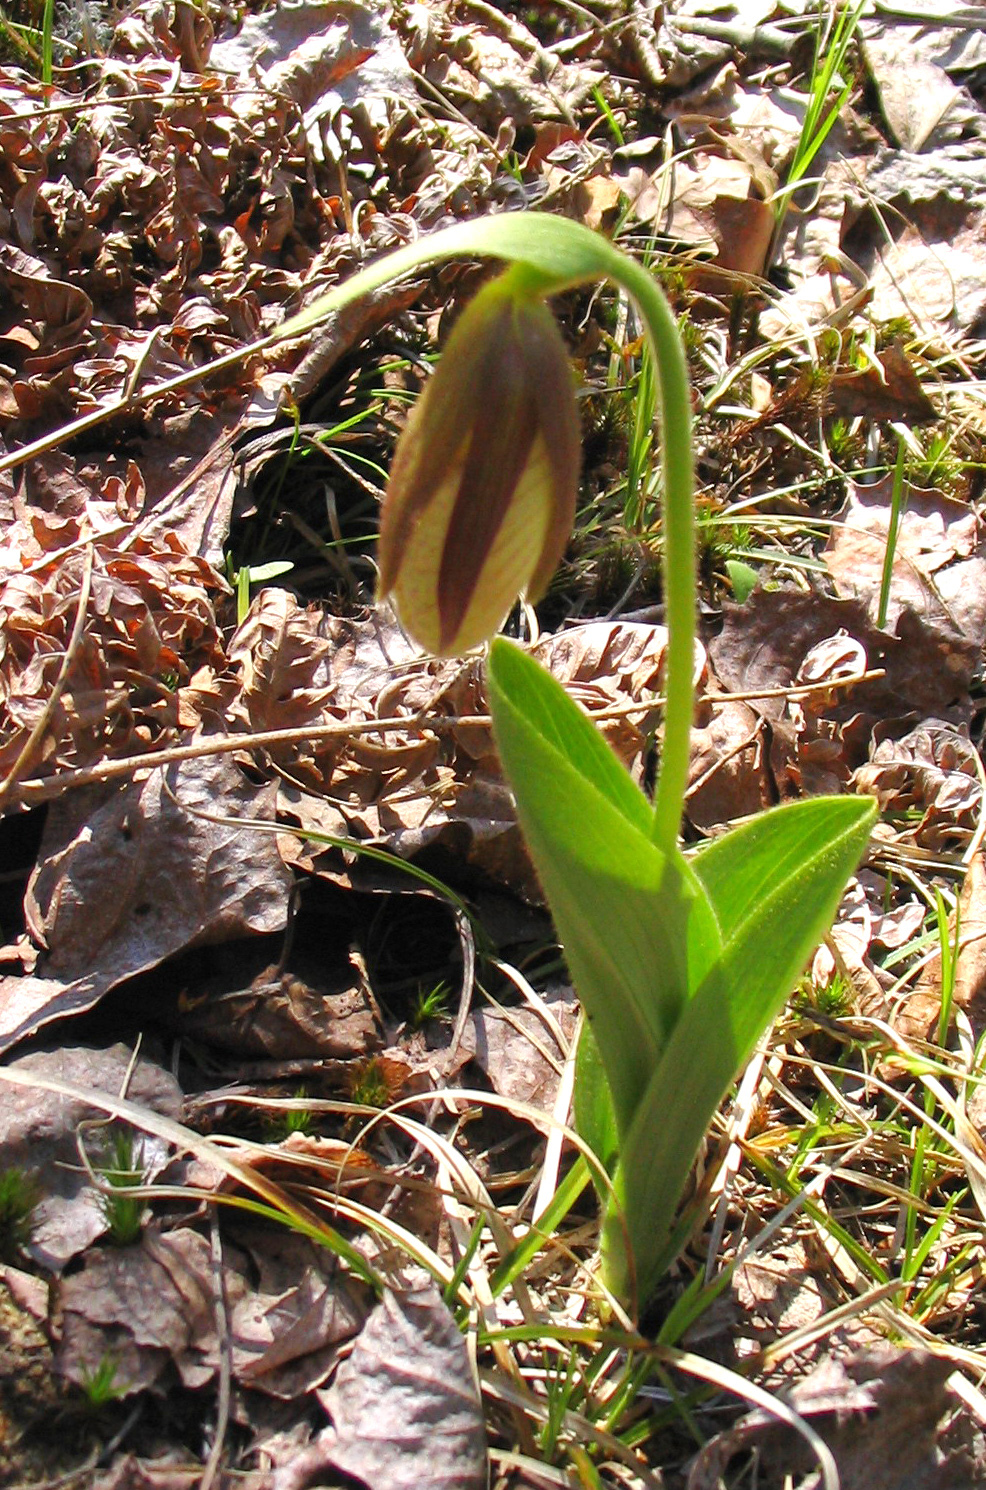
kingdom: Plantae
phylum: Tracheophyta
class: Liliopsida
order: Asparagales
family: Orchidaceae
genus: Cypripedium
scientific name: Cypripedium acaule
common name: Pink lady's-slipper
